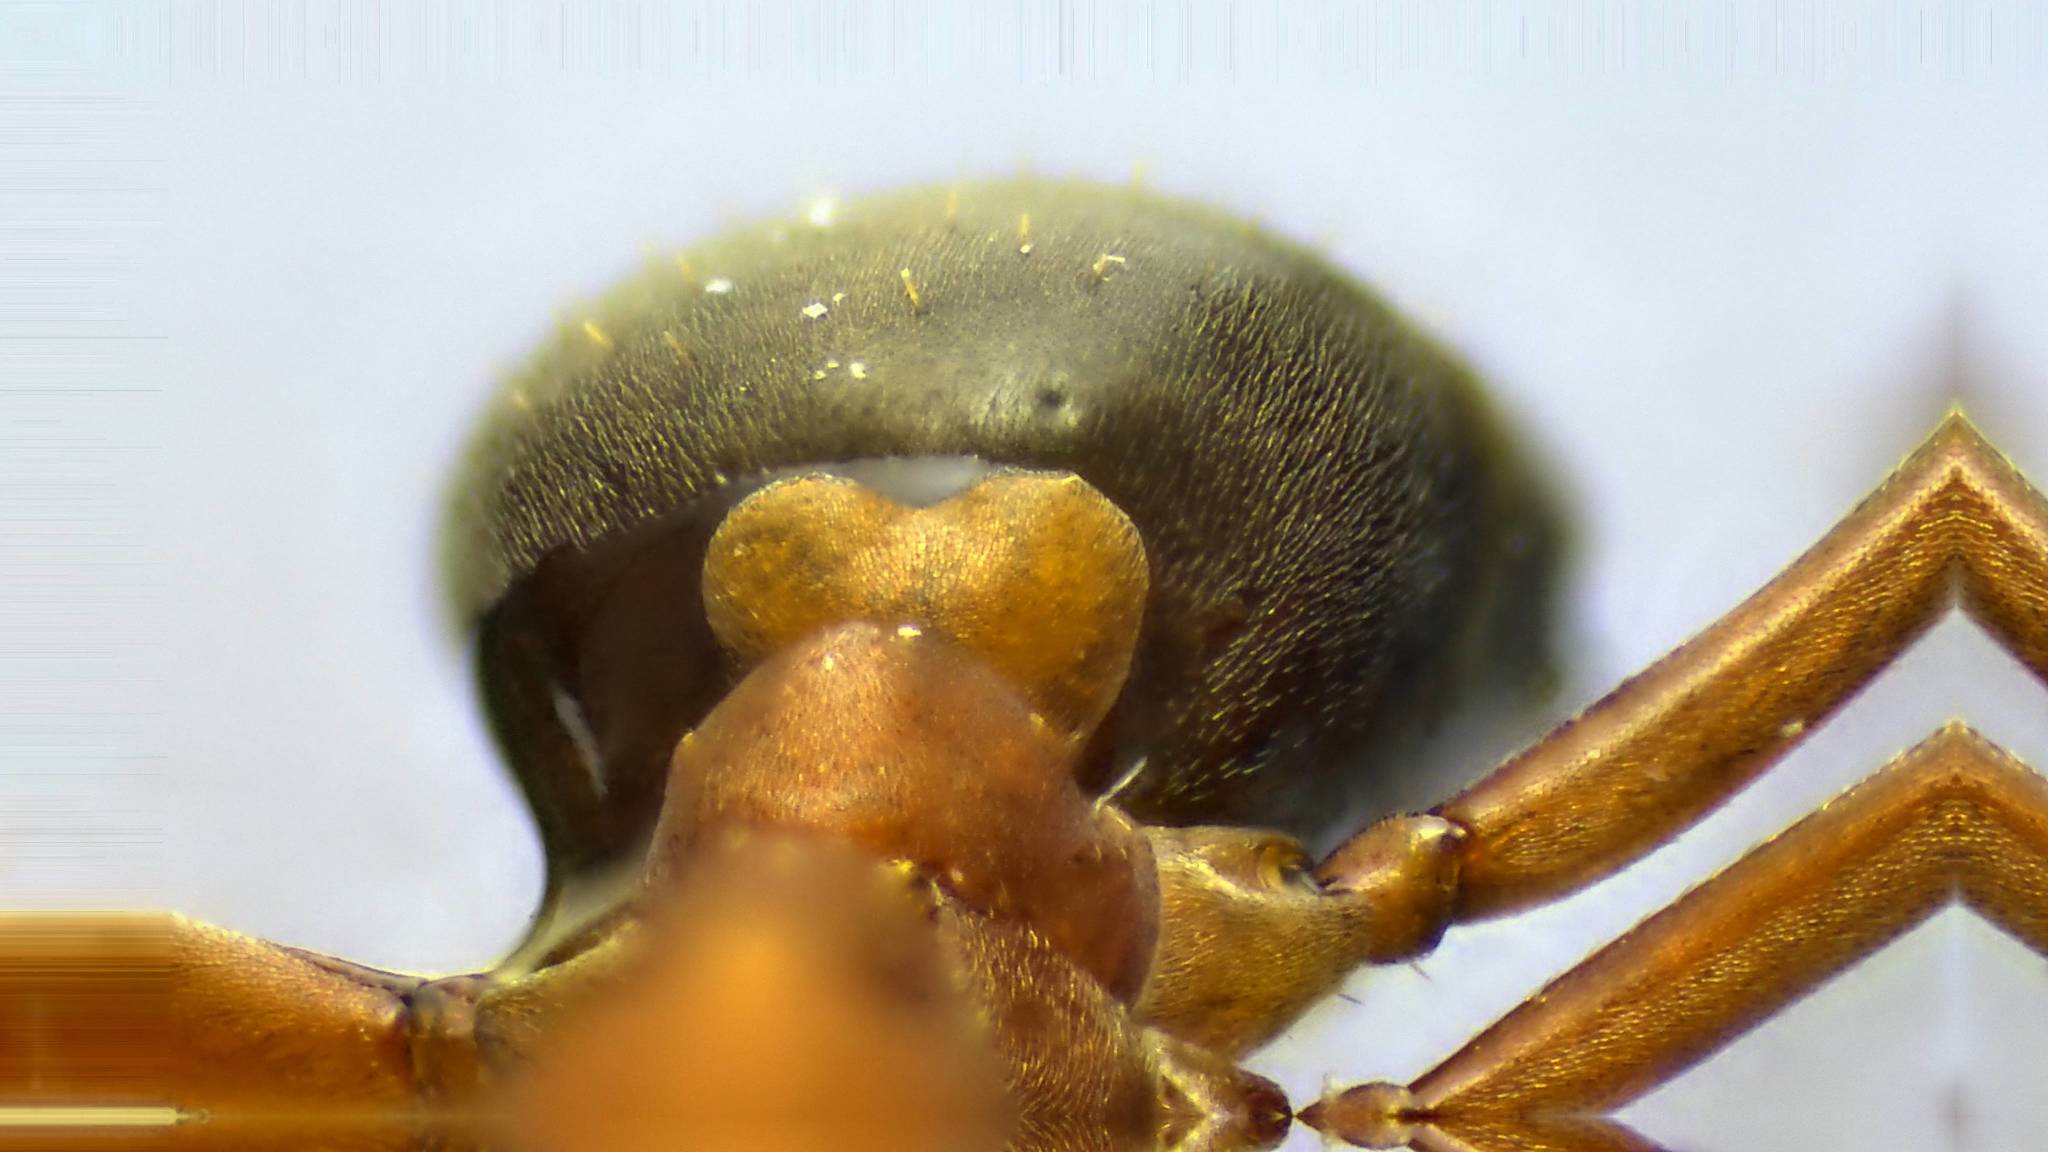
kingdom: Animalia
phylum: Arthropoda
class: Insecta
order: Hymenoptera
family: Formicidae
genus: Formica
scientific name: Formica subintegra
